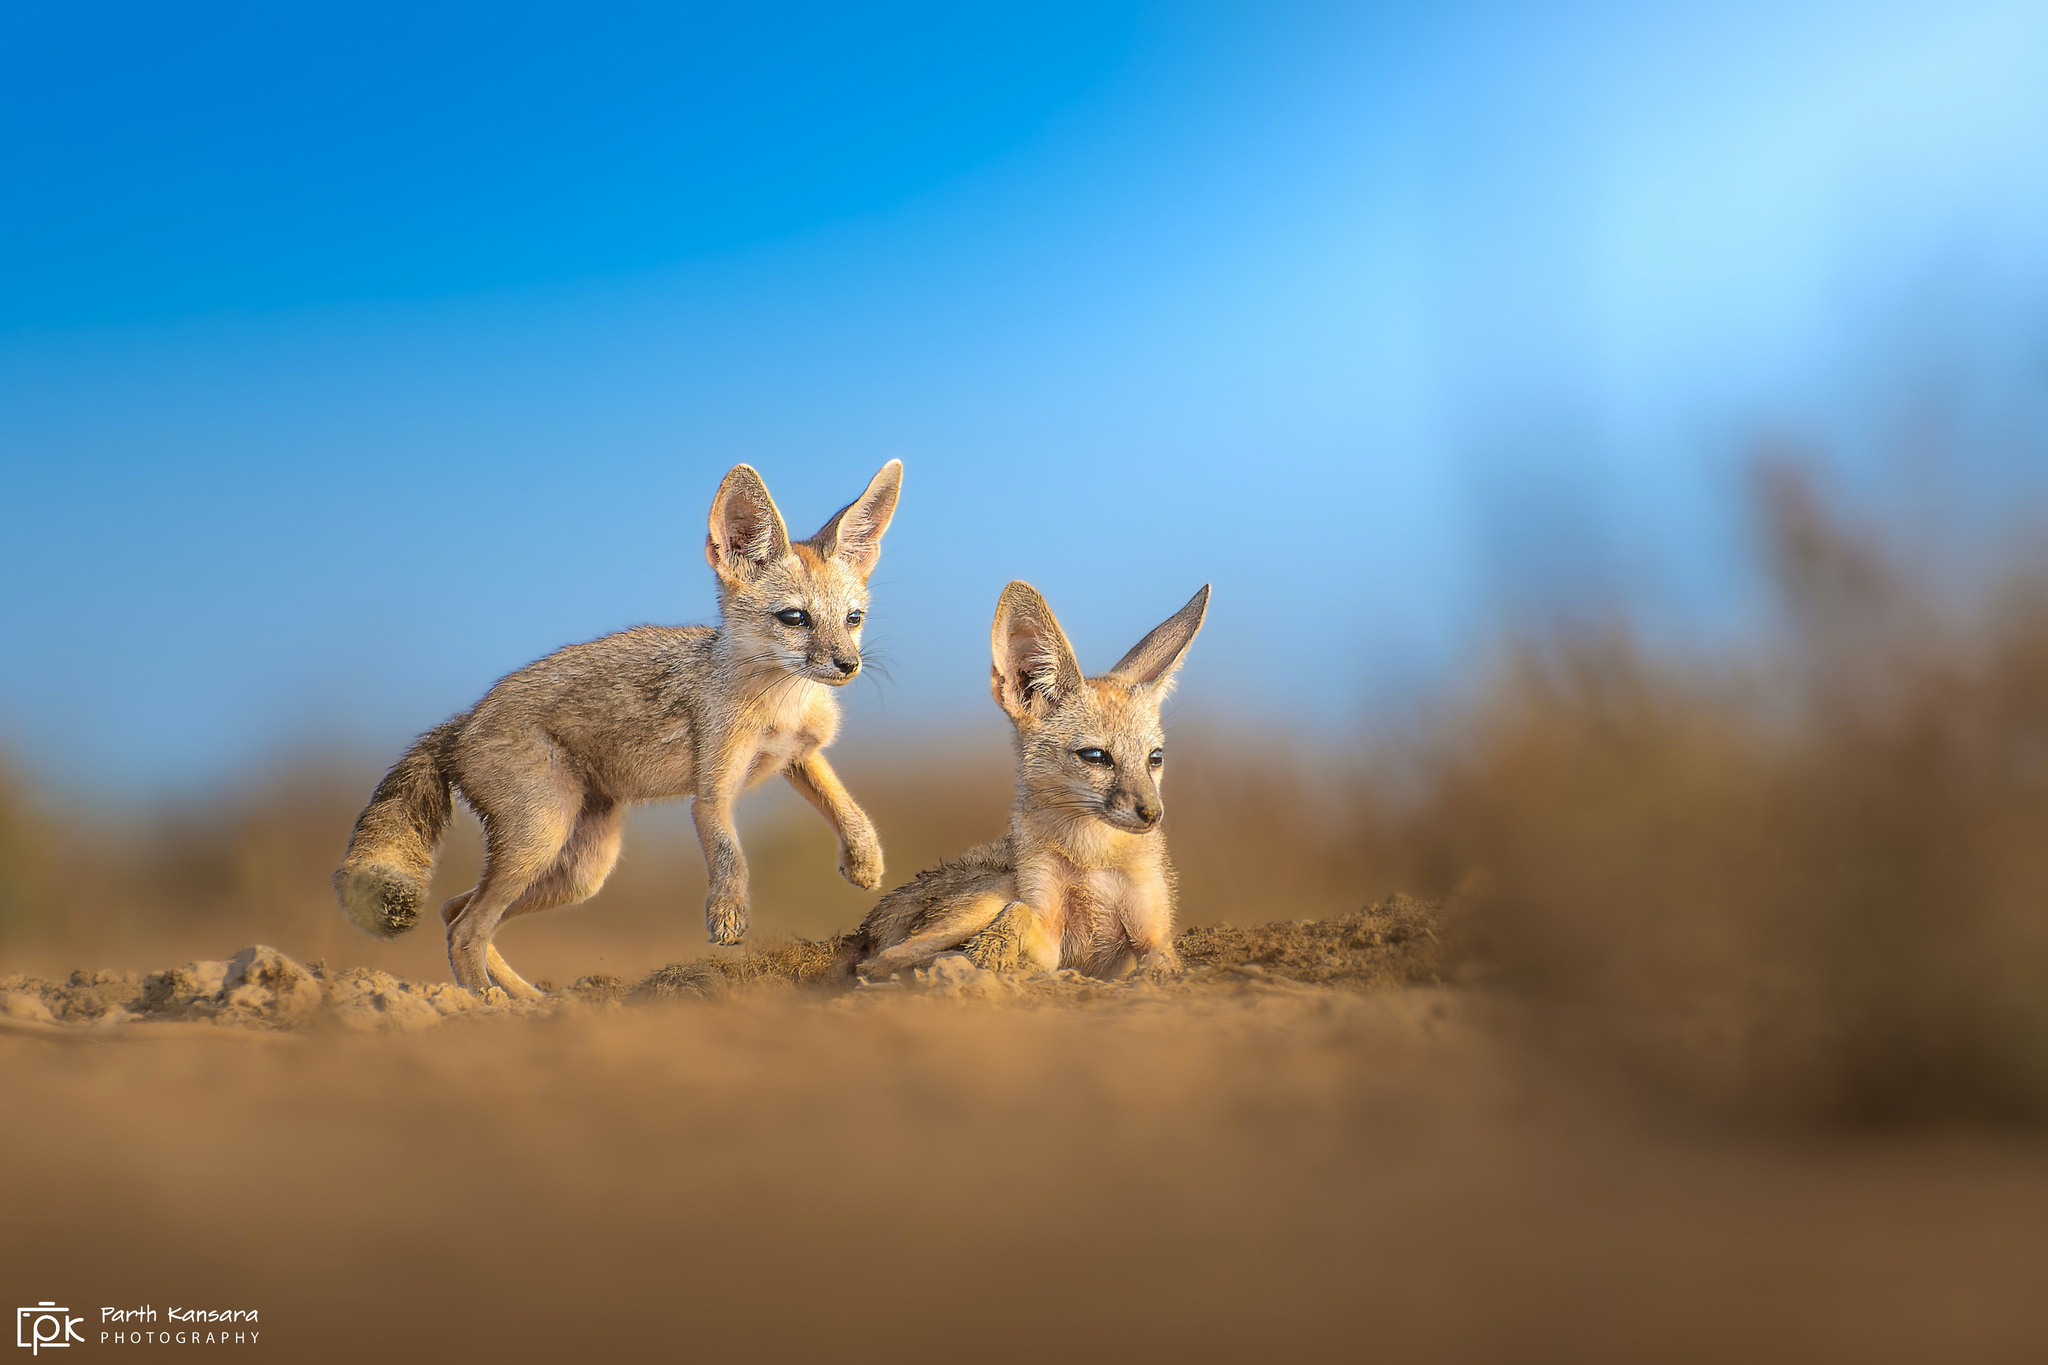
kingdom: Animalia
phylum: Chordata
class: Mammalia
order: Carnivora
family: Canidae
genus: Vulpes
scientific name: Vulpes bengalensis
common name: Bengal fox
